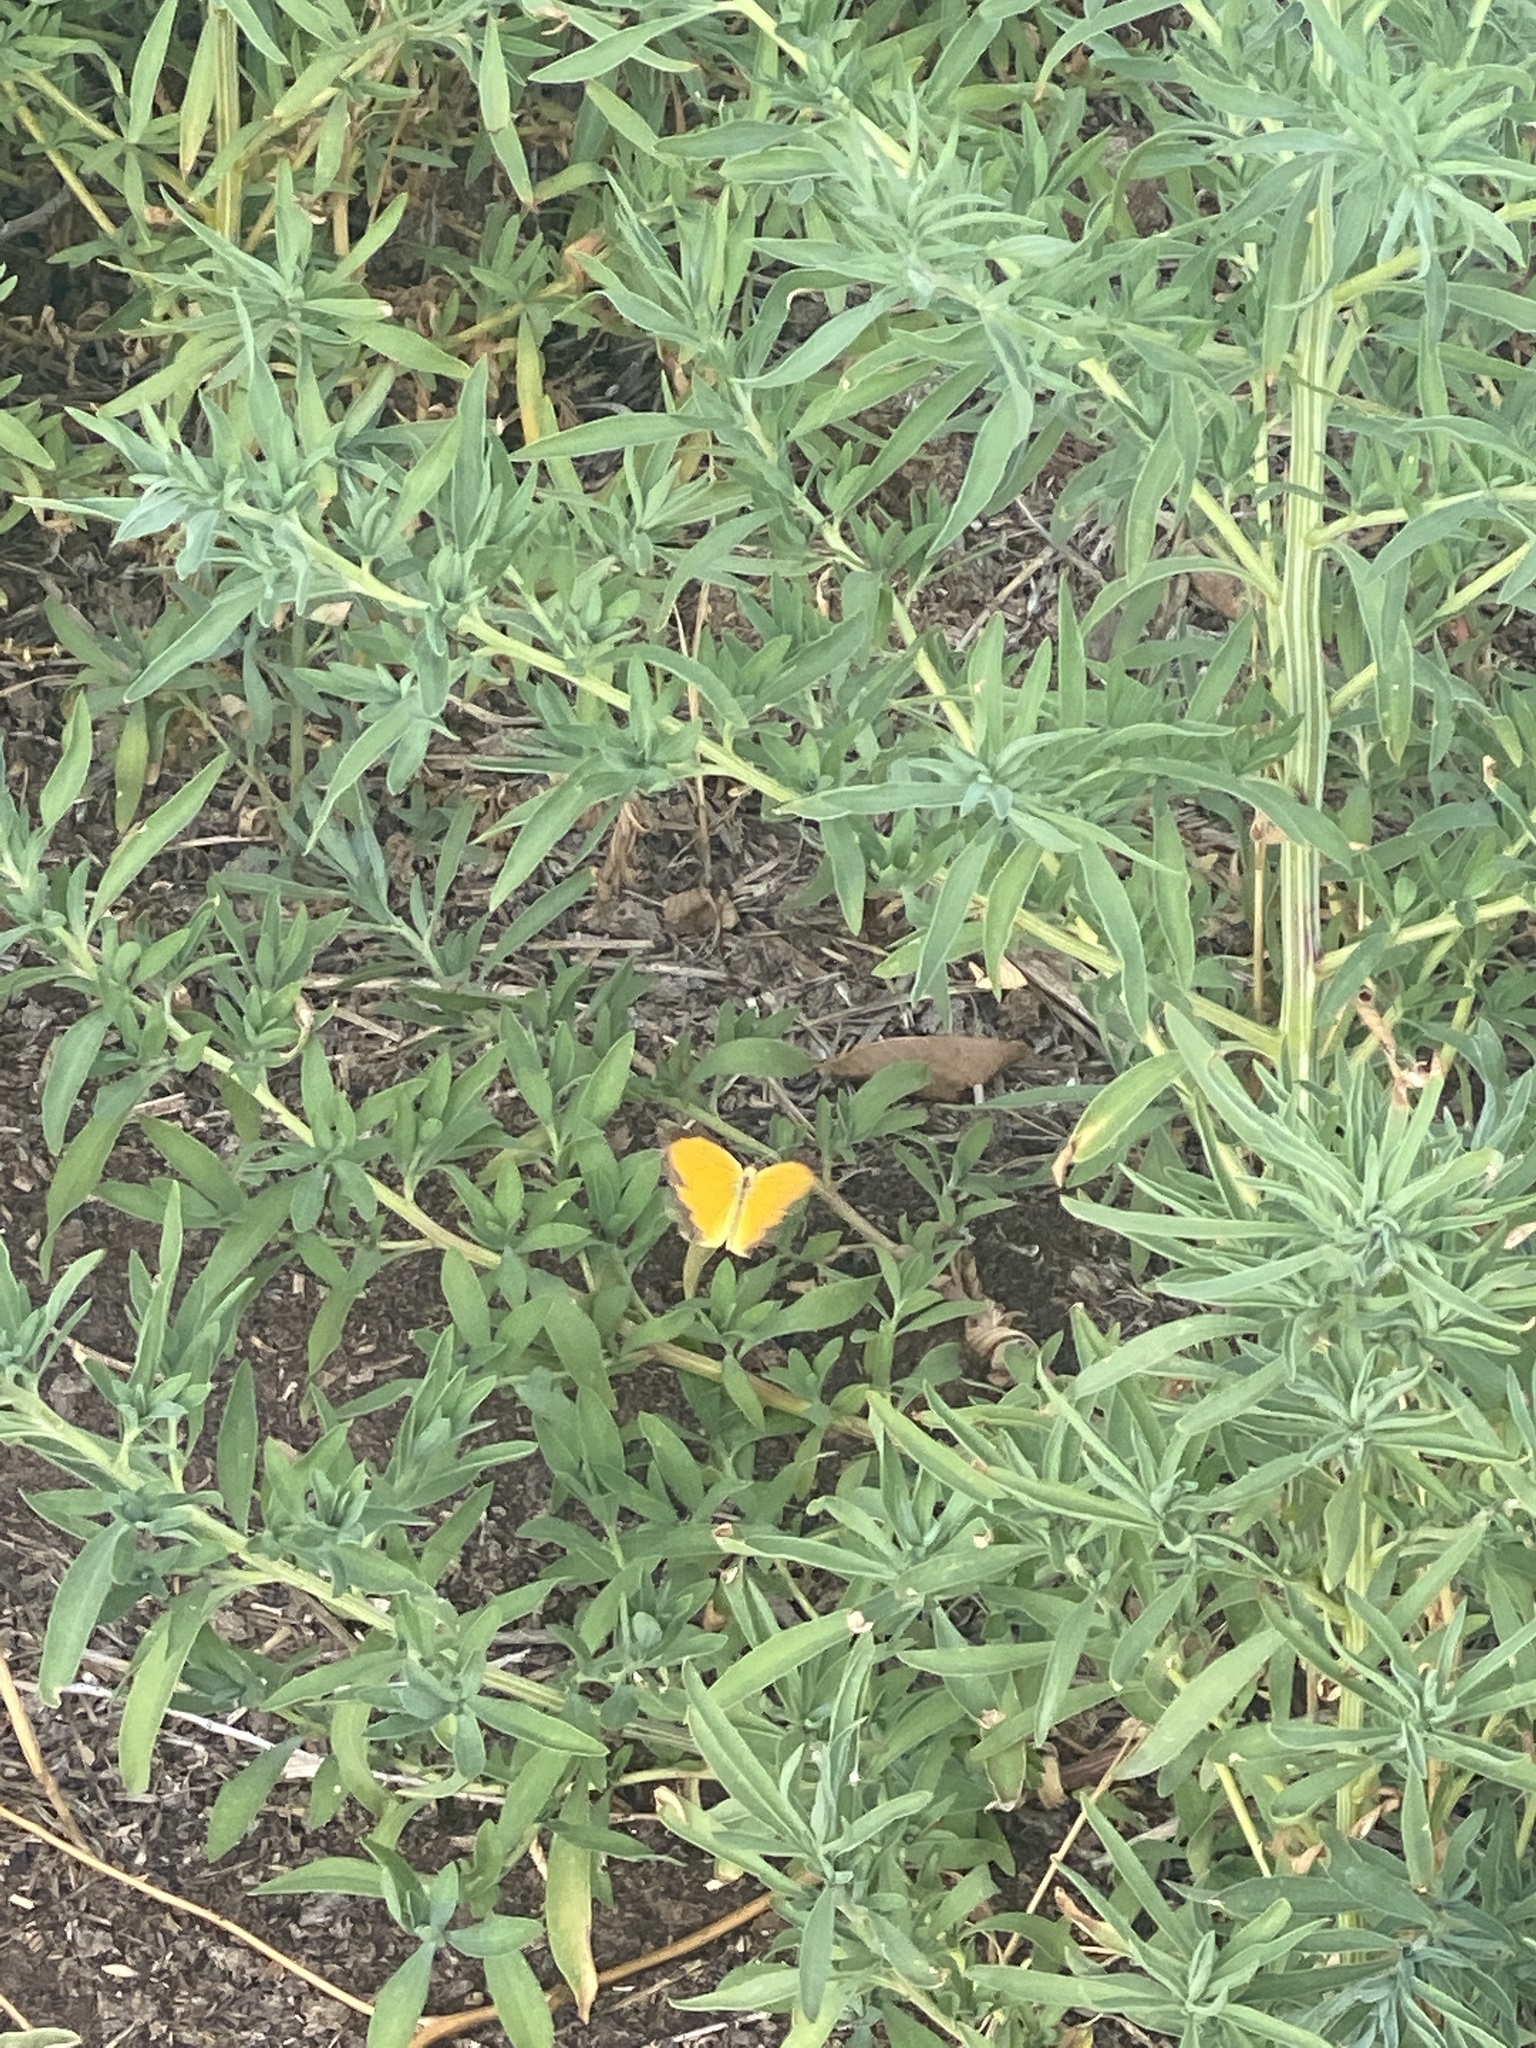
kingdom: Animalia
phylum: Arthropoda
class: Insecta
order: Lepidoptera
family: Pieridae
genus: Abaeis
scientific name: Abaeis nicippe
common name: Sleepy orange
